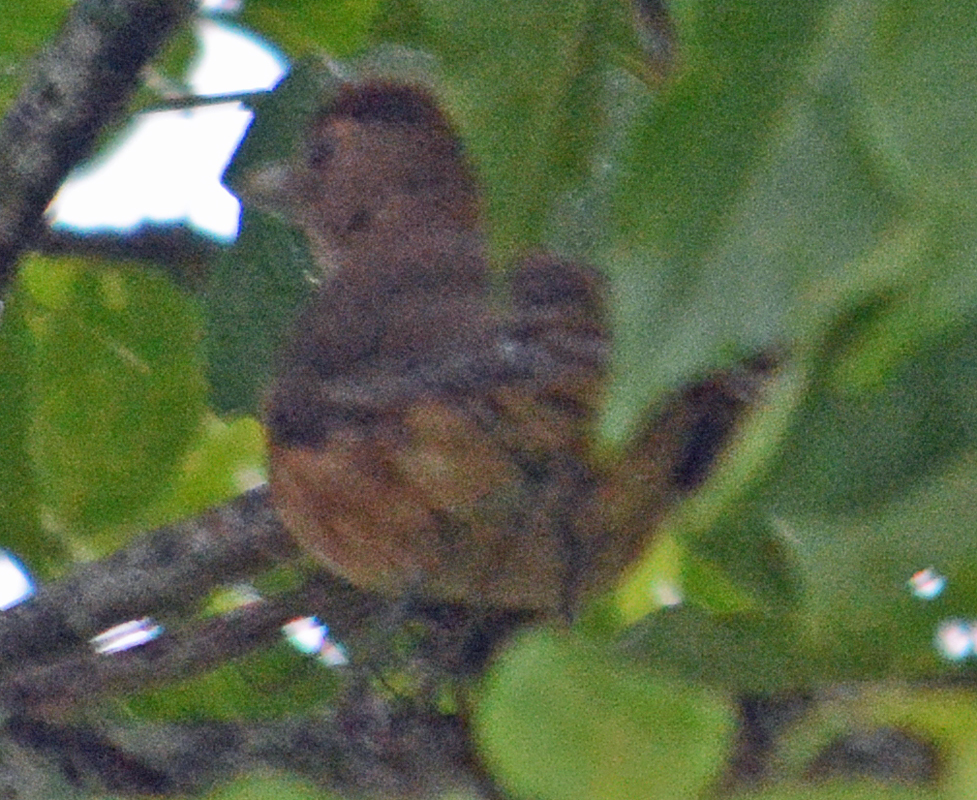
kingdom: Animalia
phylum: Chordata
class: Aves
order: Passeriformes
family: Turdidae
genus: Turdus
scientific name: Turdus grayi
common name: Clay-colored thrush
